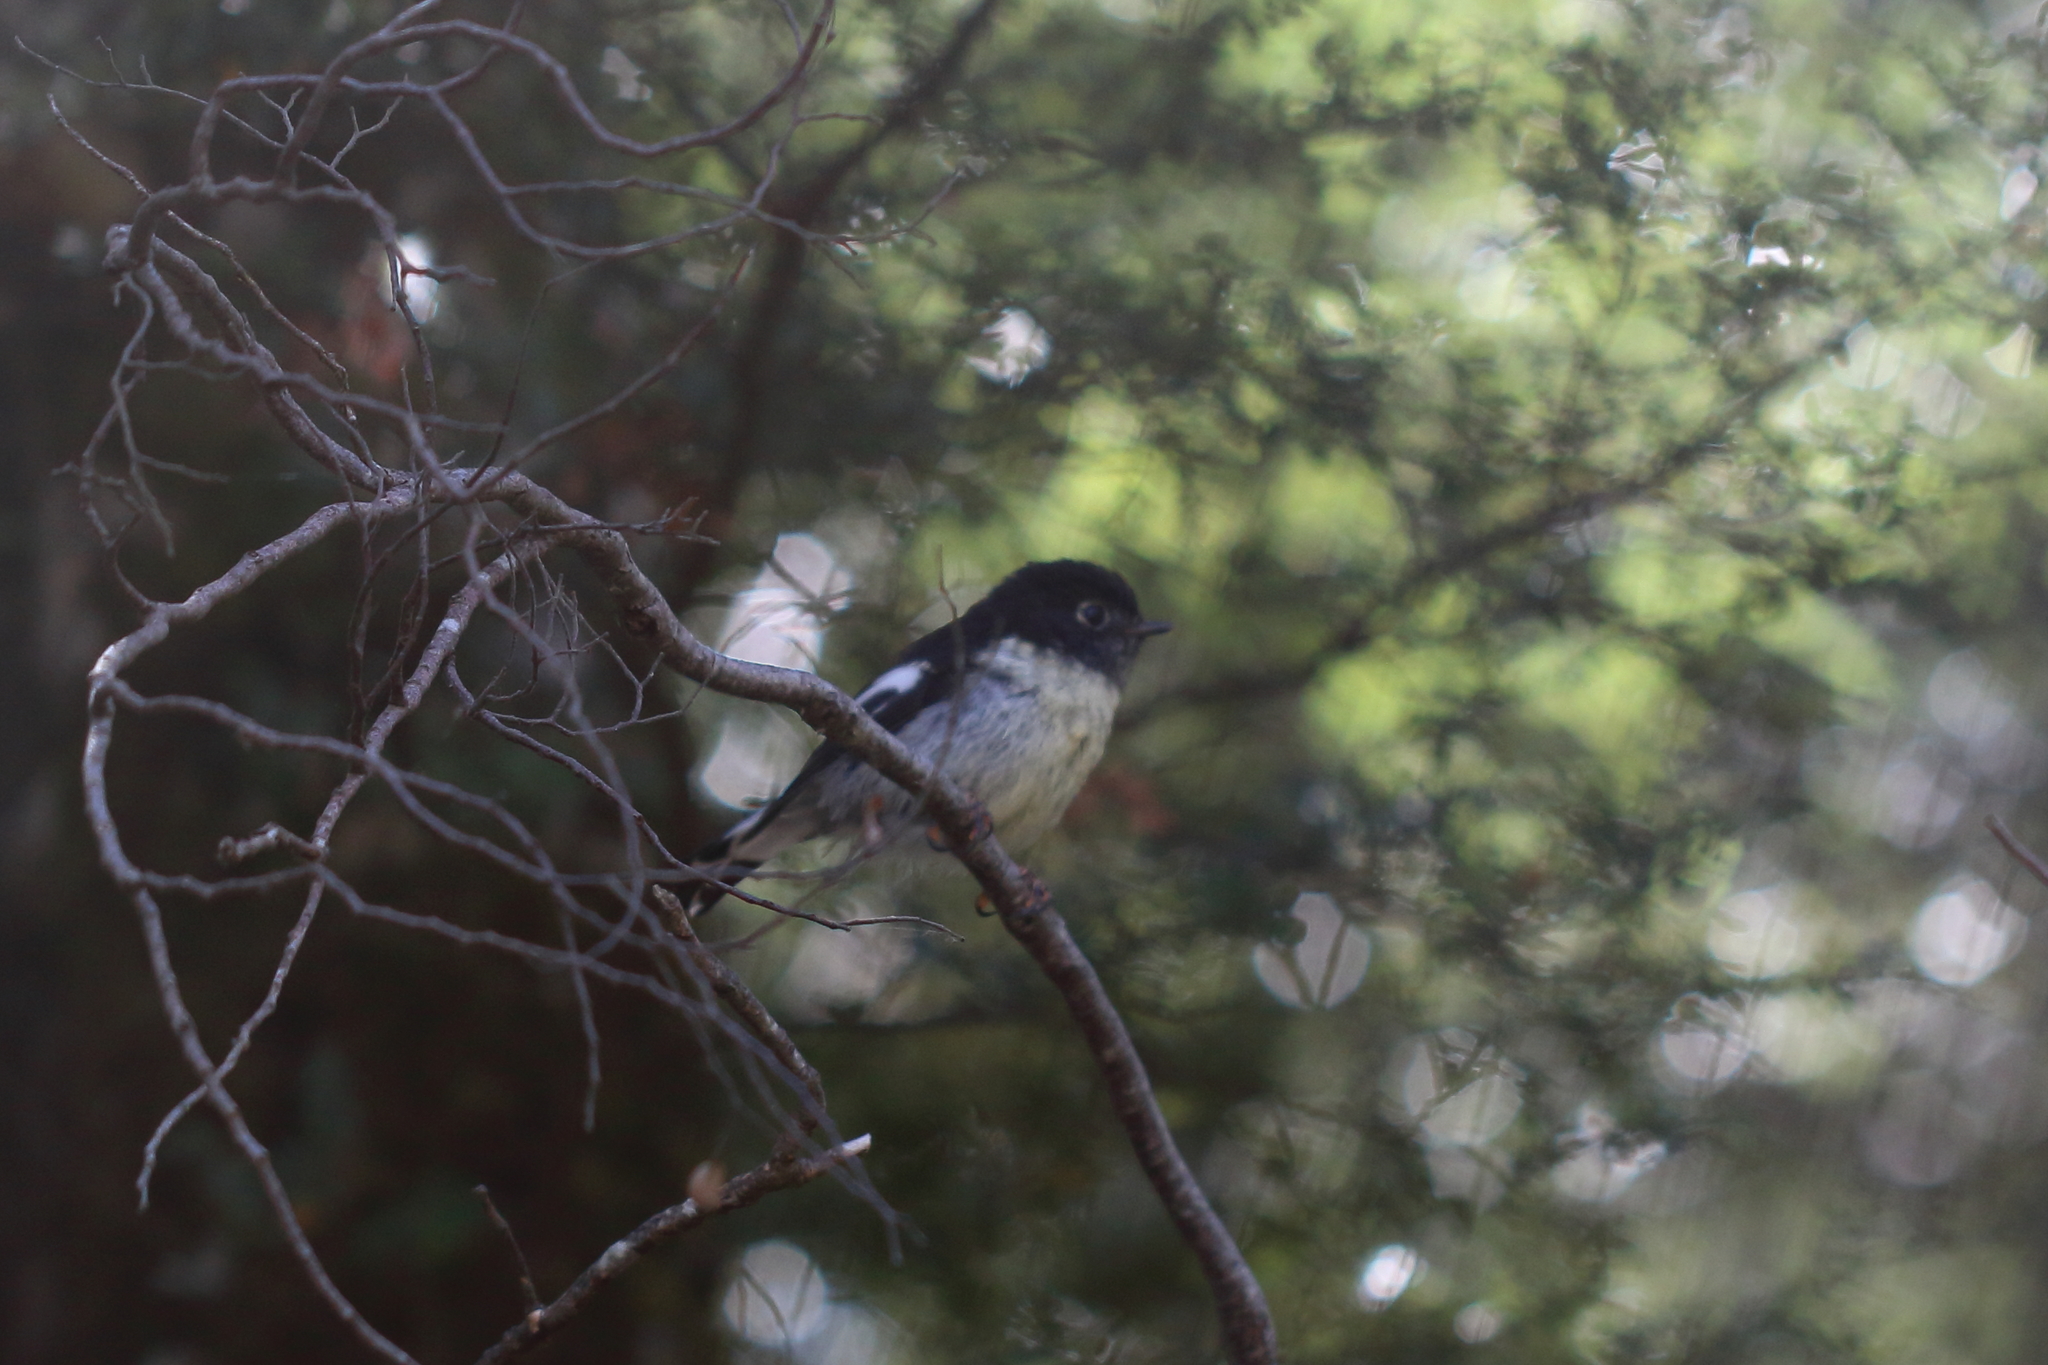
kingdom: Animalia
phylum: Chordata
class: Aves
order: Passeriformes
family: Petroicidae
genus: Petroica
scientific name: Petroica macrocephala
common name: Tomtit
